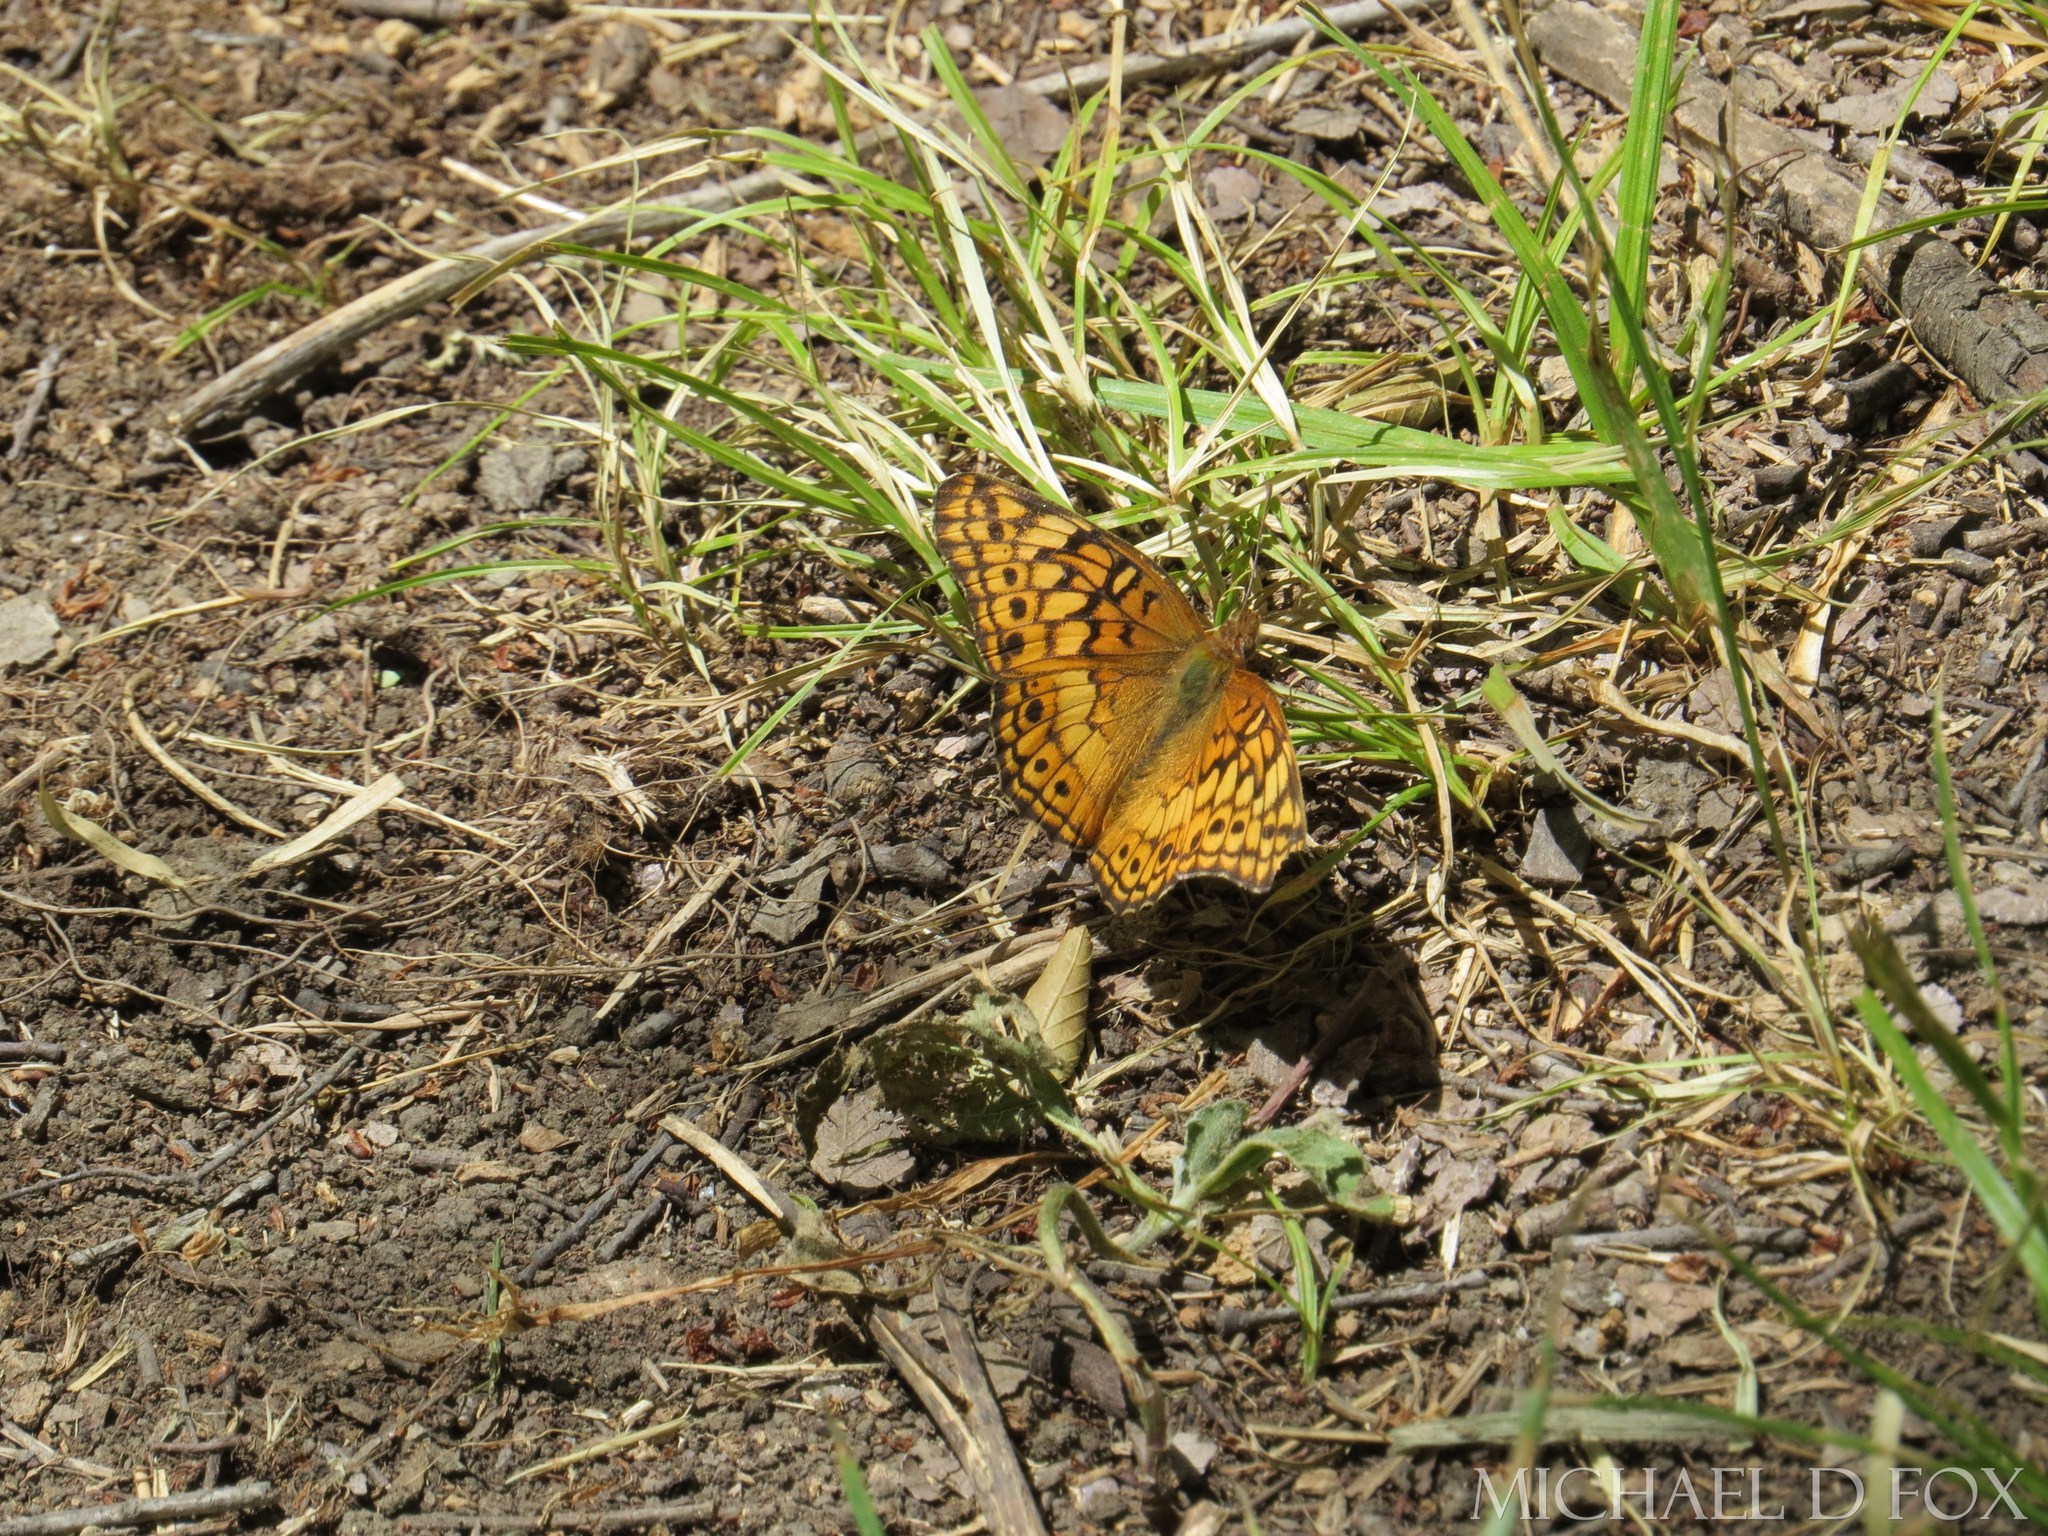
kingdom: Animalia
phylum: Arthropoda
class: Insecta
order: Lepidoptera
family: Nymphalidae
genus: Euptoieta
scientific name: Euptoieta claudia
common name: Variegated fritillary
